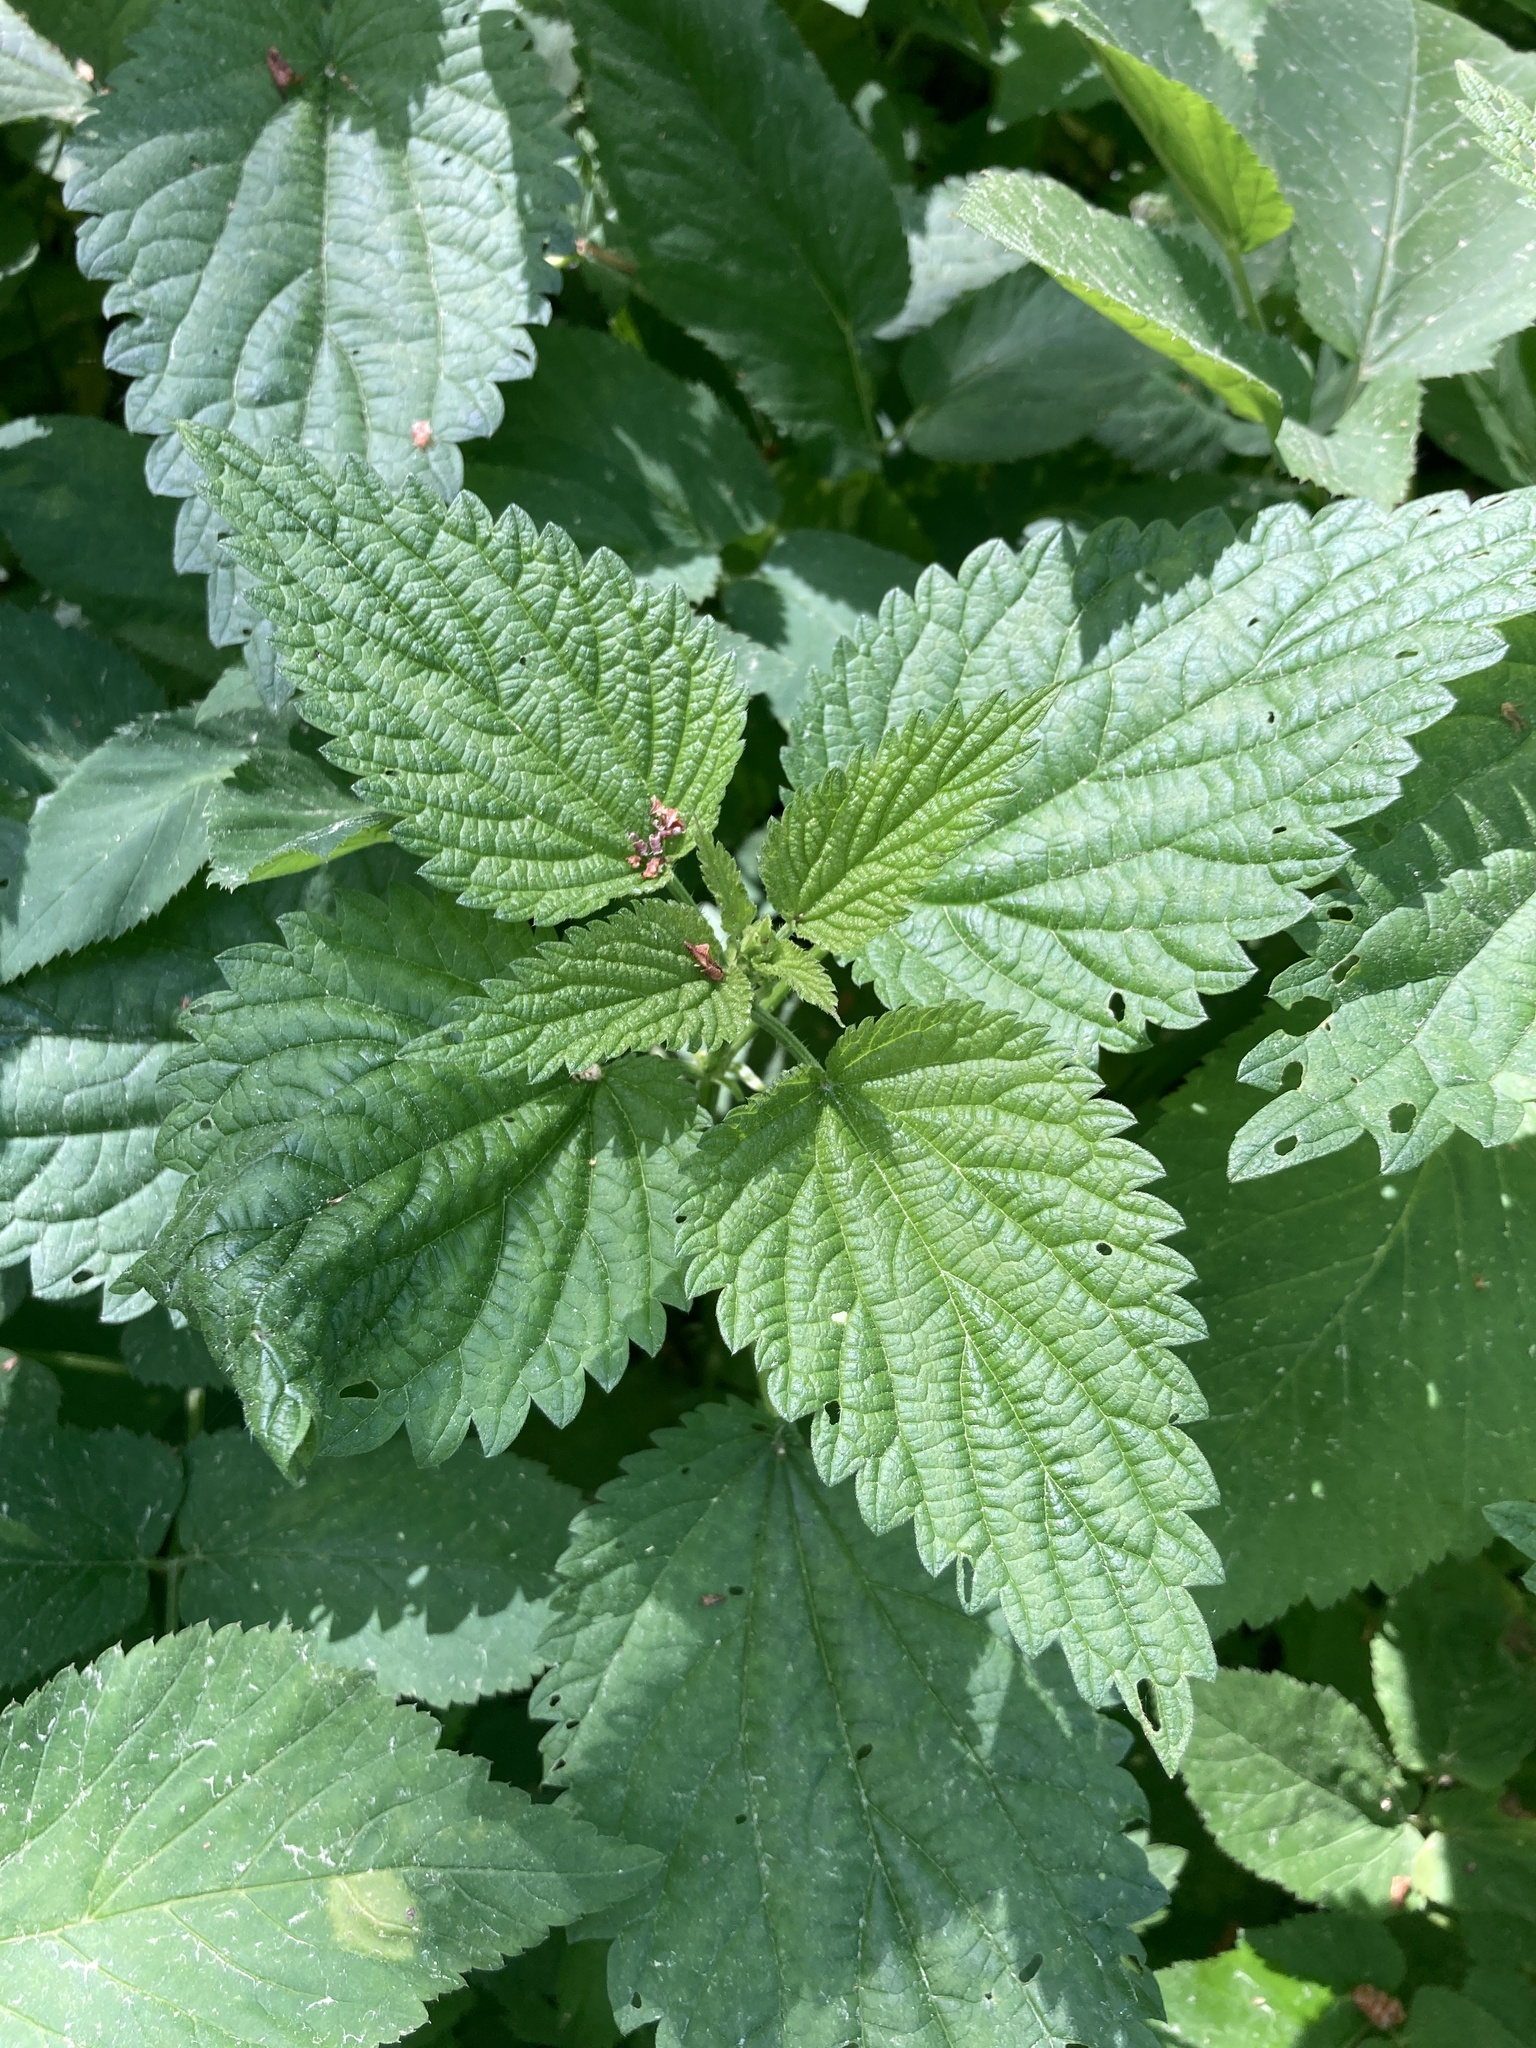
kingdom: Plantae
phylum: Tracheophyta
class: Magnoliopsida
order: Rosales
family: Urticaceae
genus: Urtica
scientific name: Urtica dioica
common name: Common nettle
